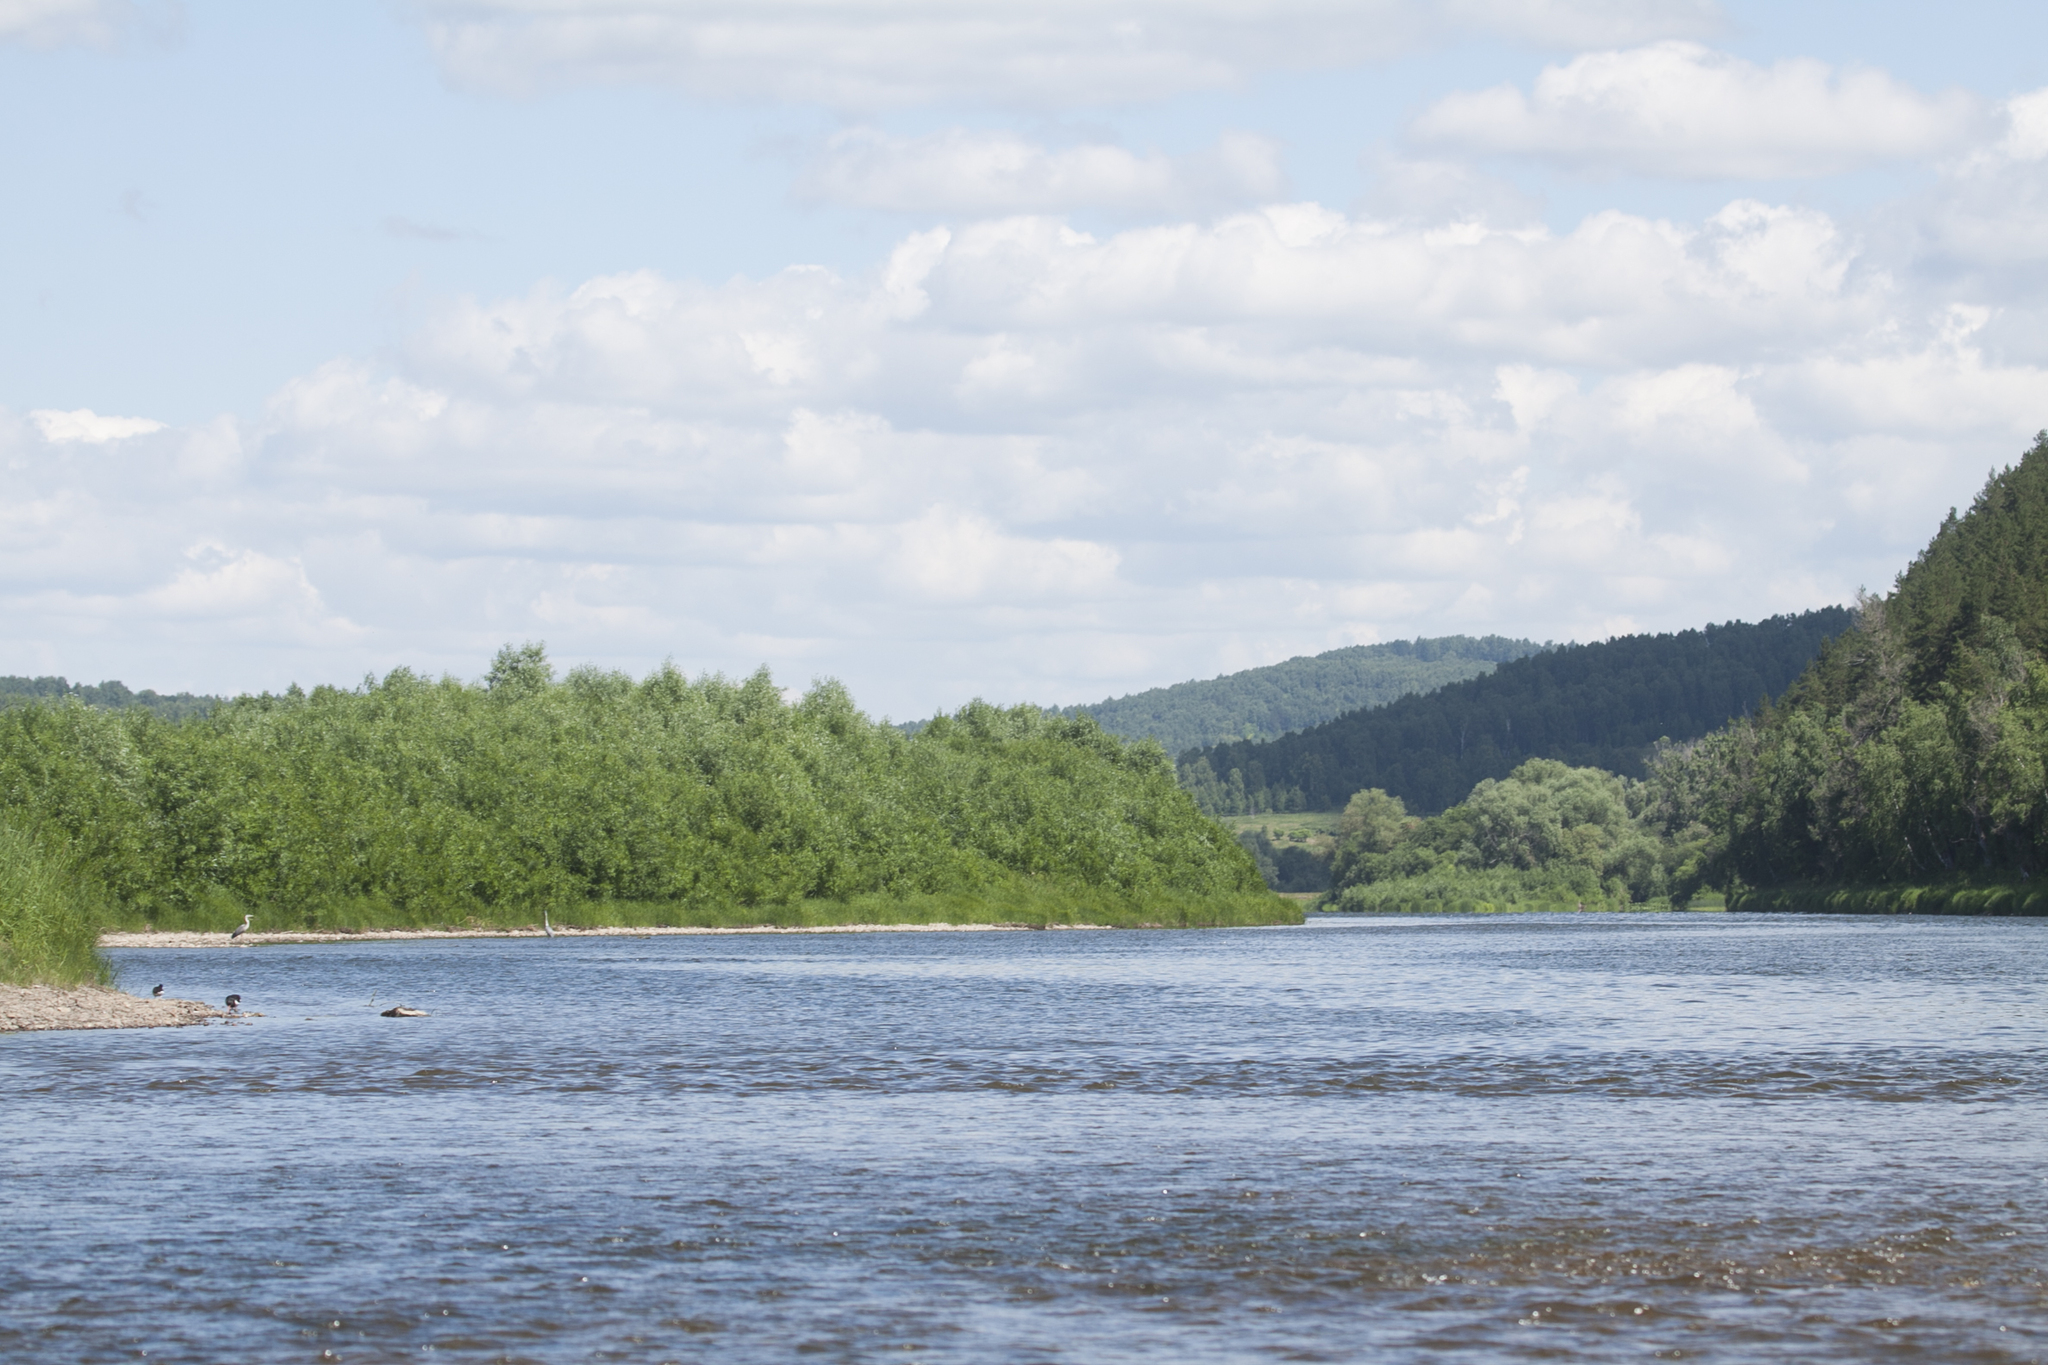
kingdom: Animalia
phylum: Chordata
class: Aves
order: Pelecaniformes
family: Ardeidae
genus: Ardea
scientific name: Ardea cinerea
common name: Grey heron
